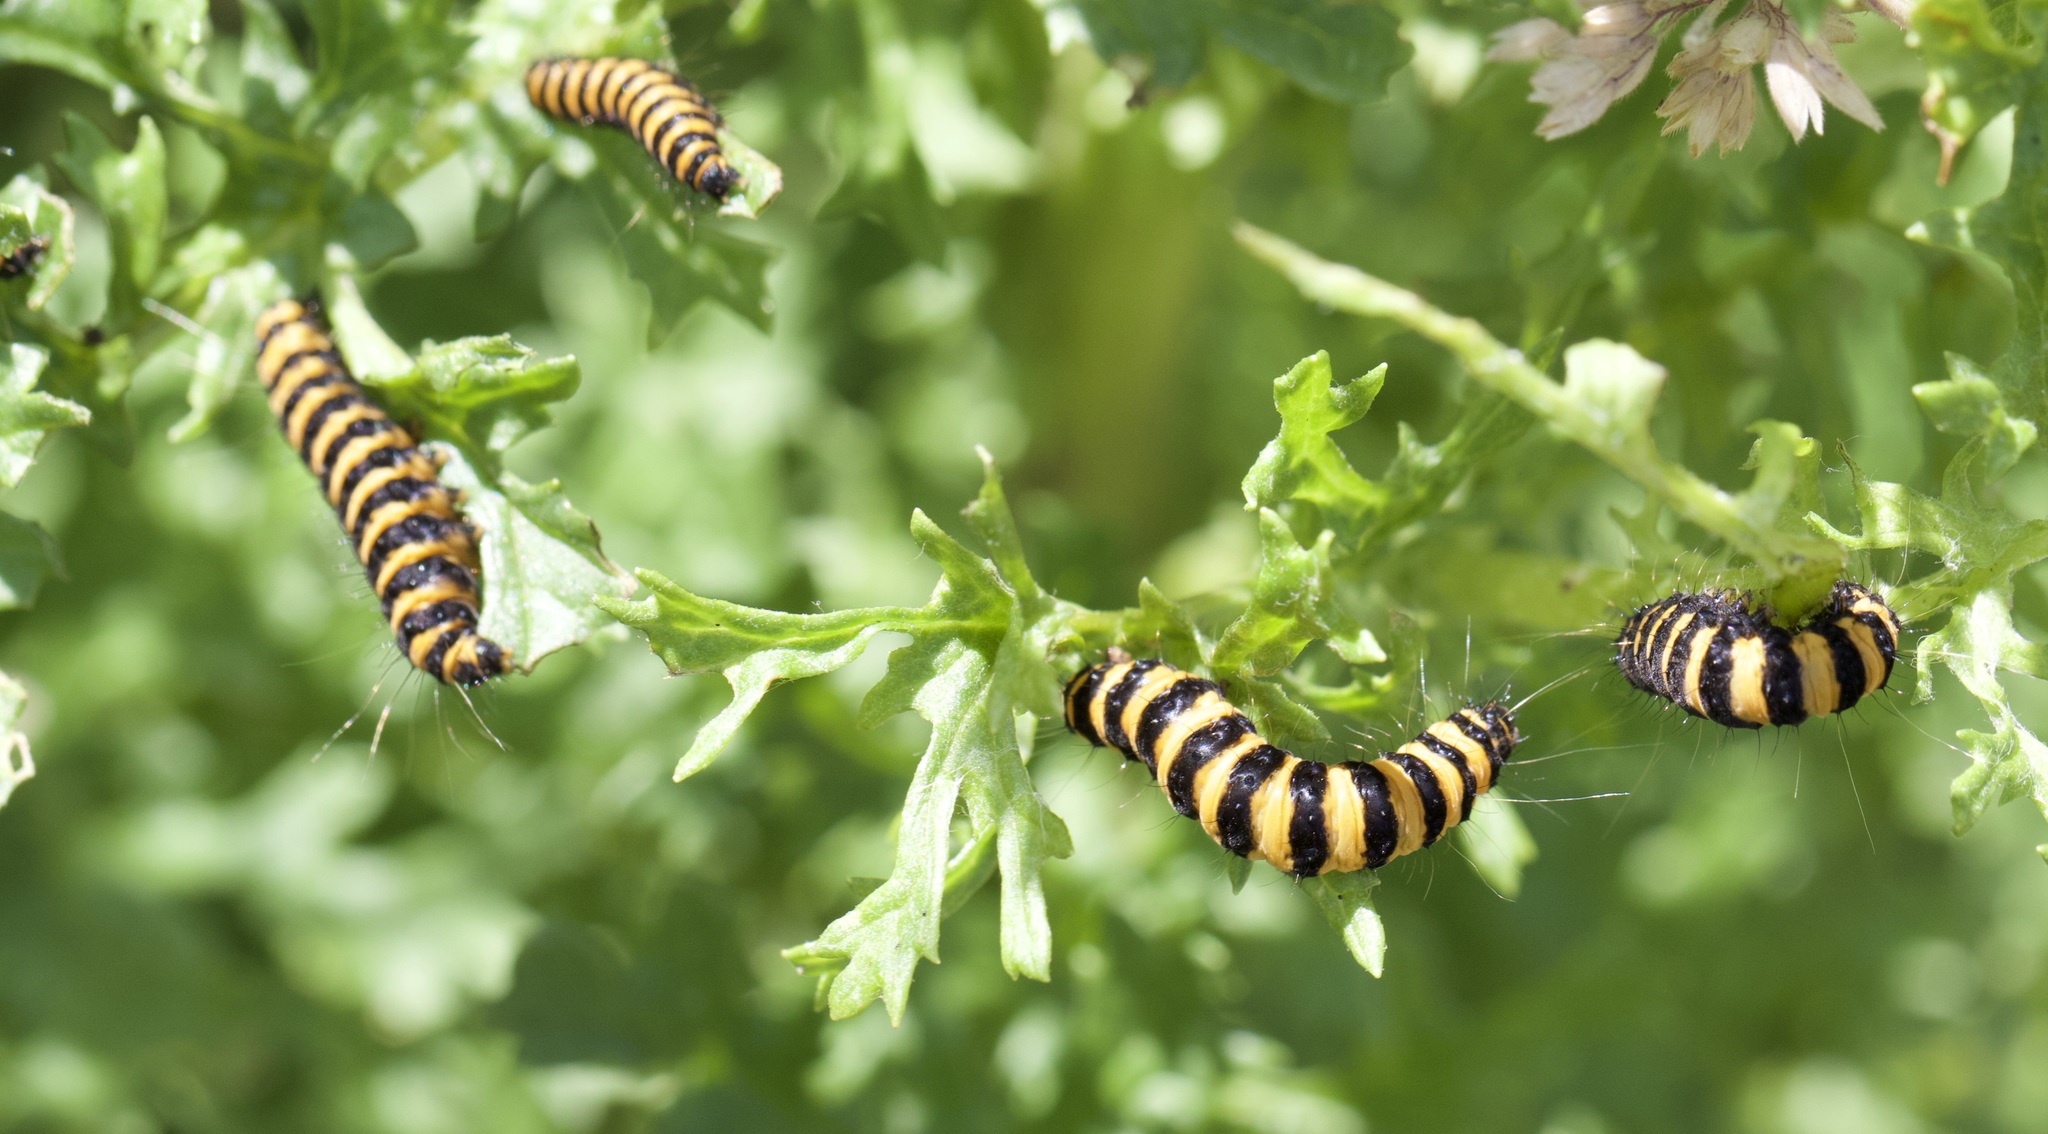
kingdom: Animalia
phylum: Arthropoda
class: Insecta
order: Lepidoptera
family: Erebidae
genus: Tyria
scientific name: Tyria jacobaeae
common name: Cinnabar
